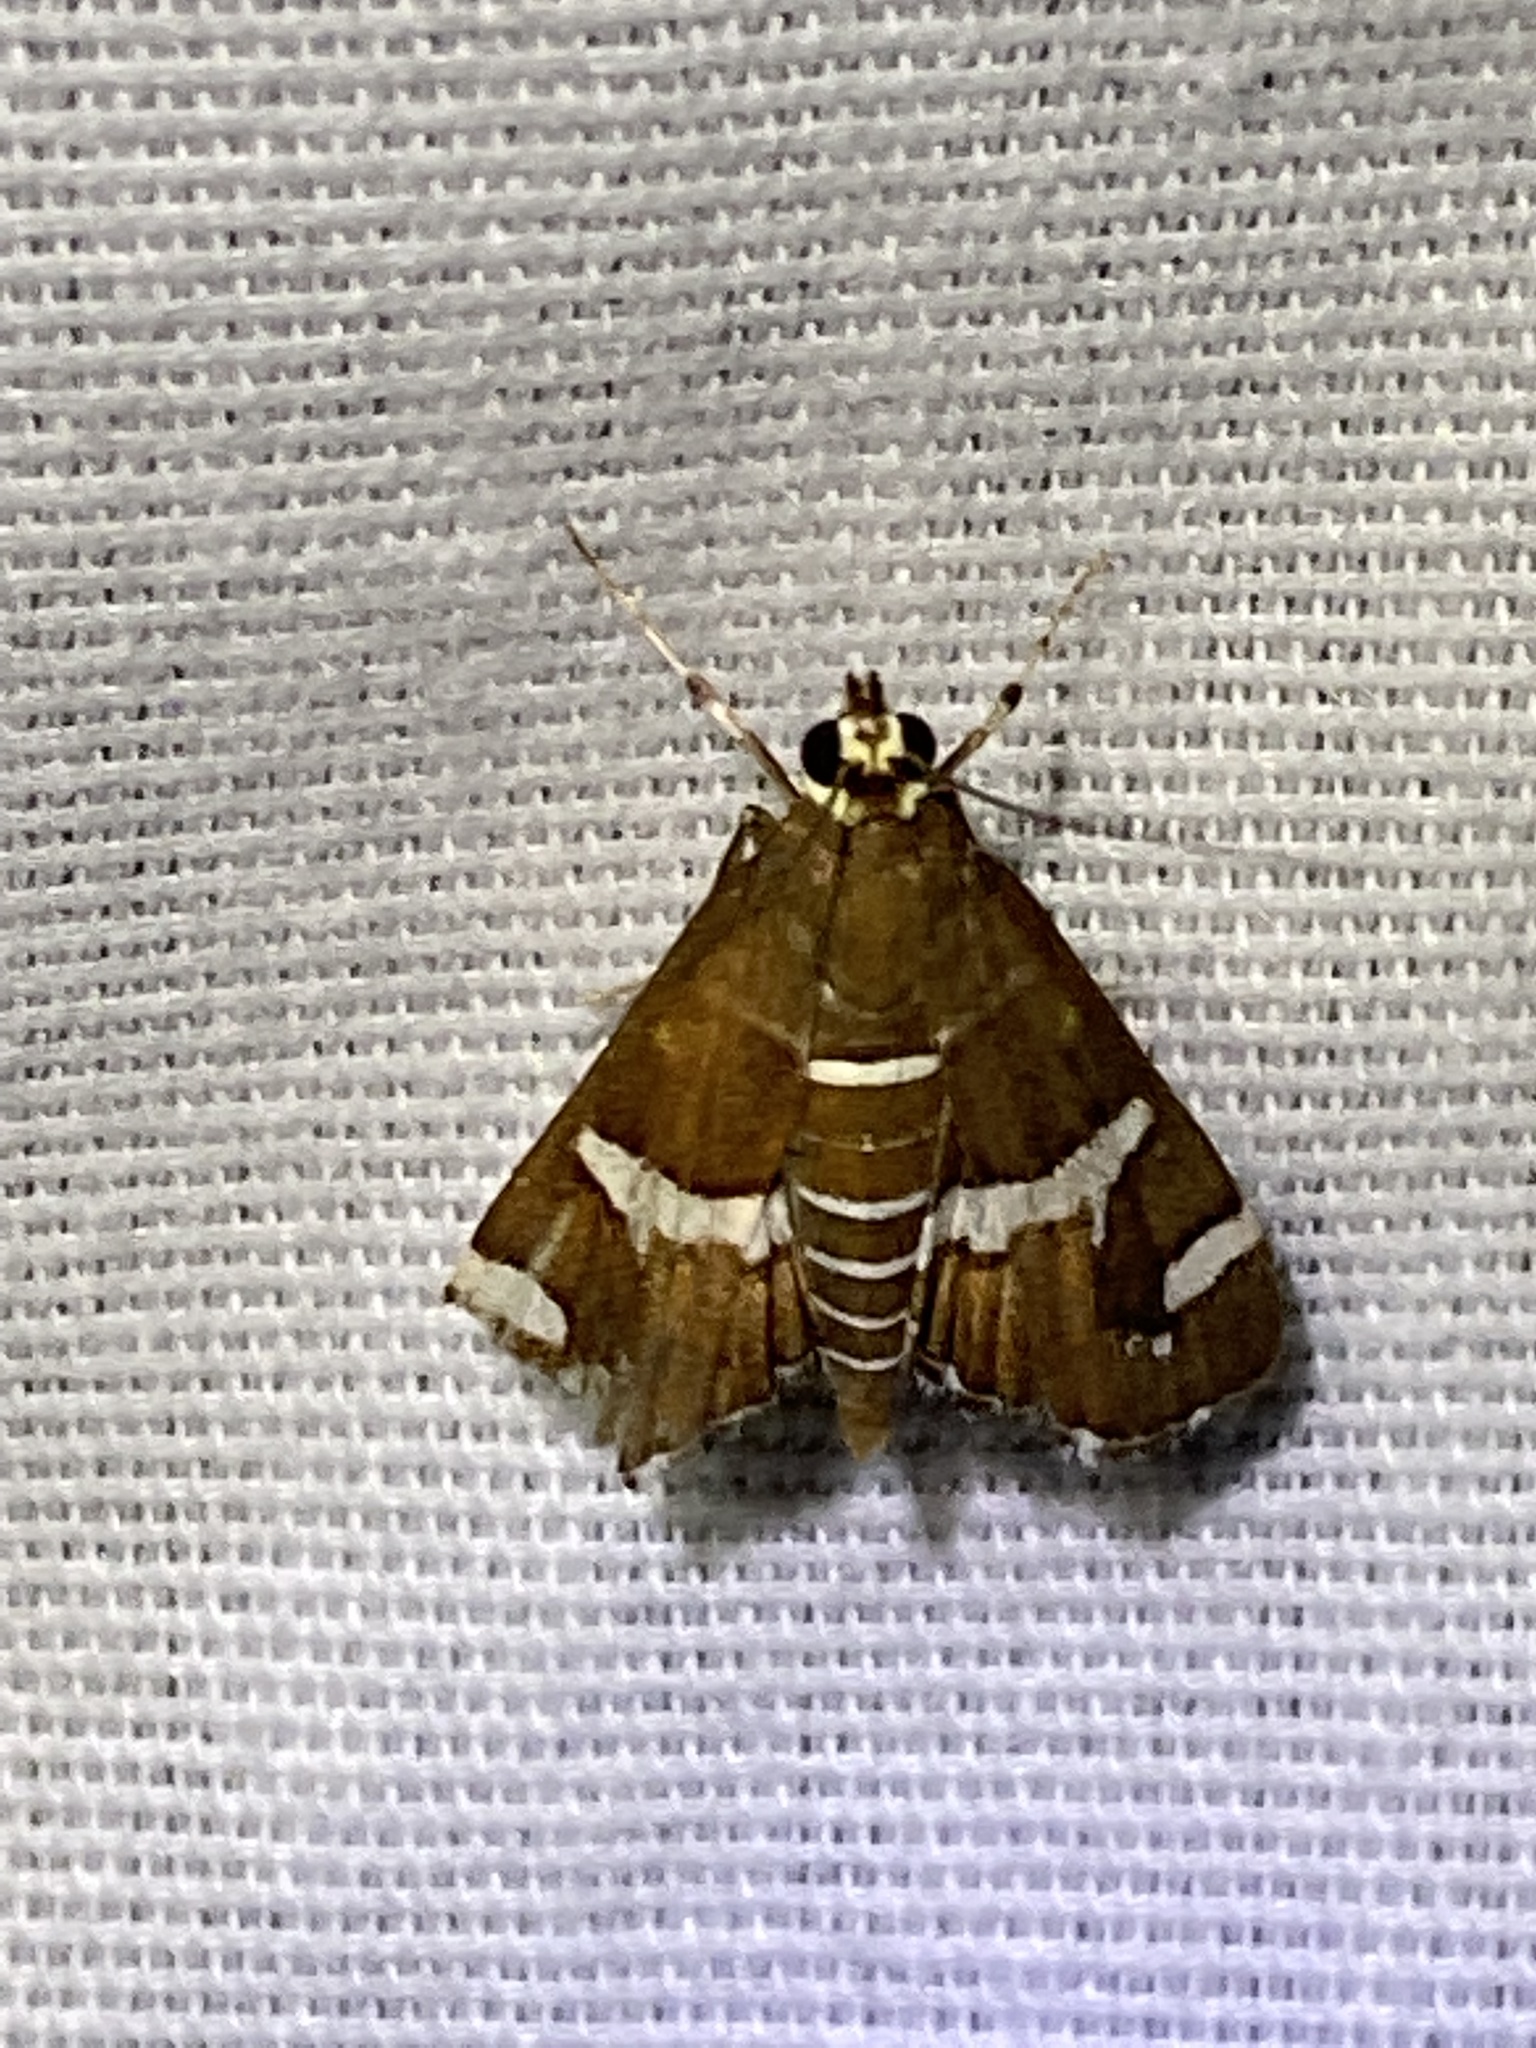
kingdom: Animalia
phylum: Arthropoda
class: Insecta
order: Lepidoptera
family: Crambidae
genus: Spoladea
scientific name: Spoladea recurvalis
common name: Beet webworm moth
